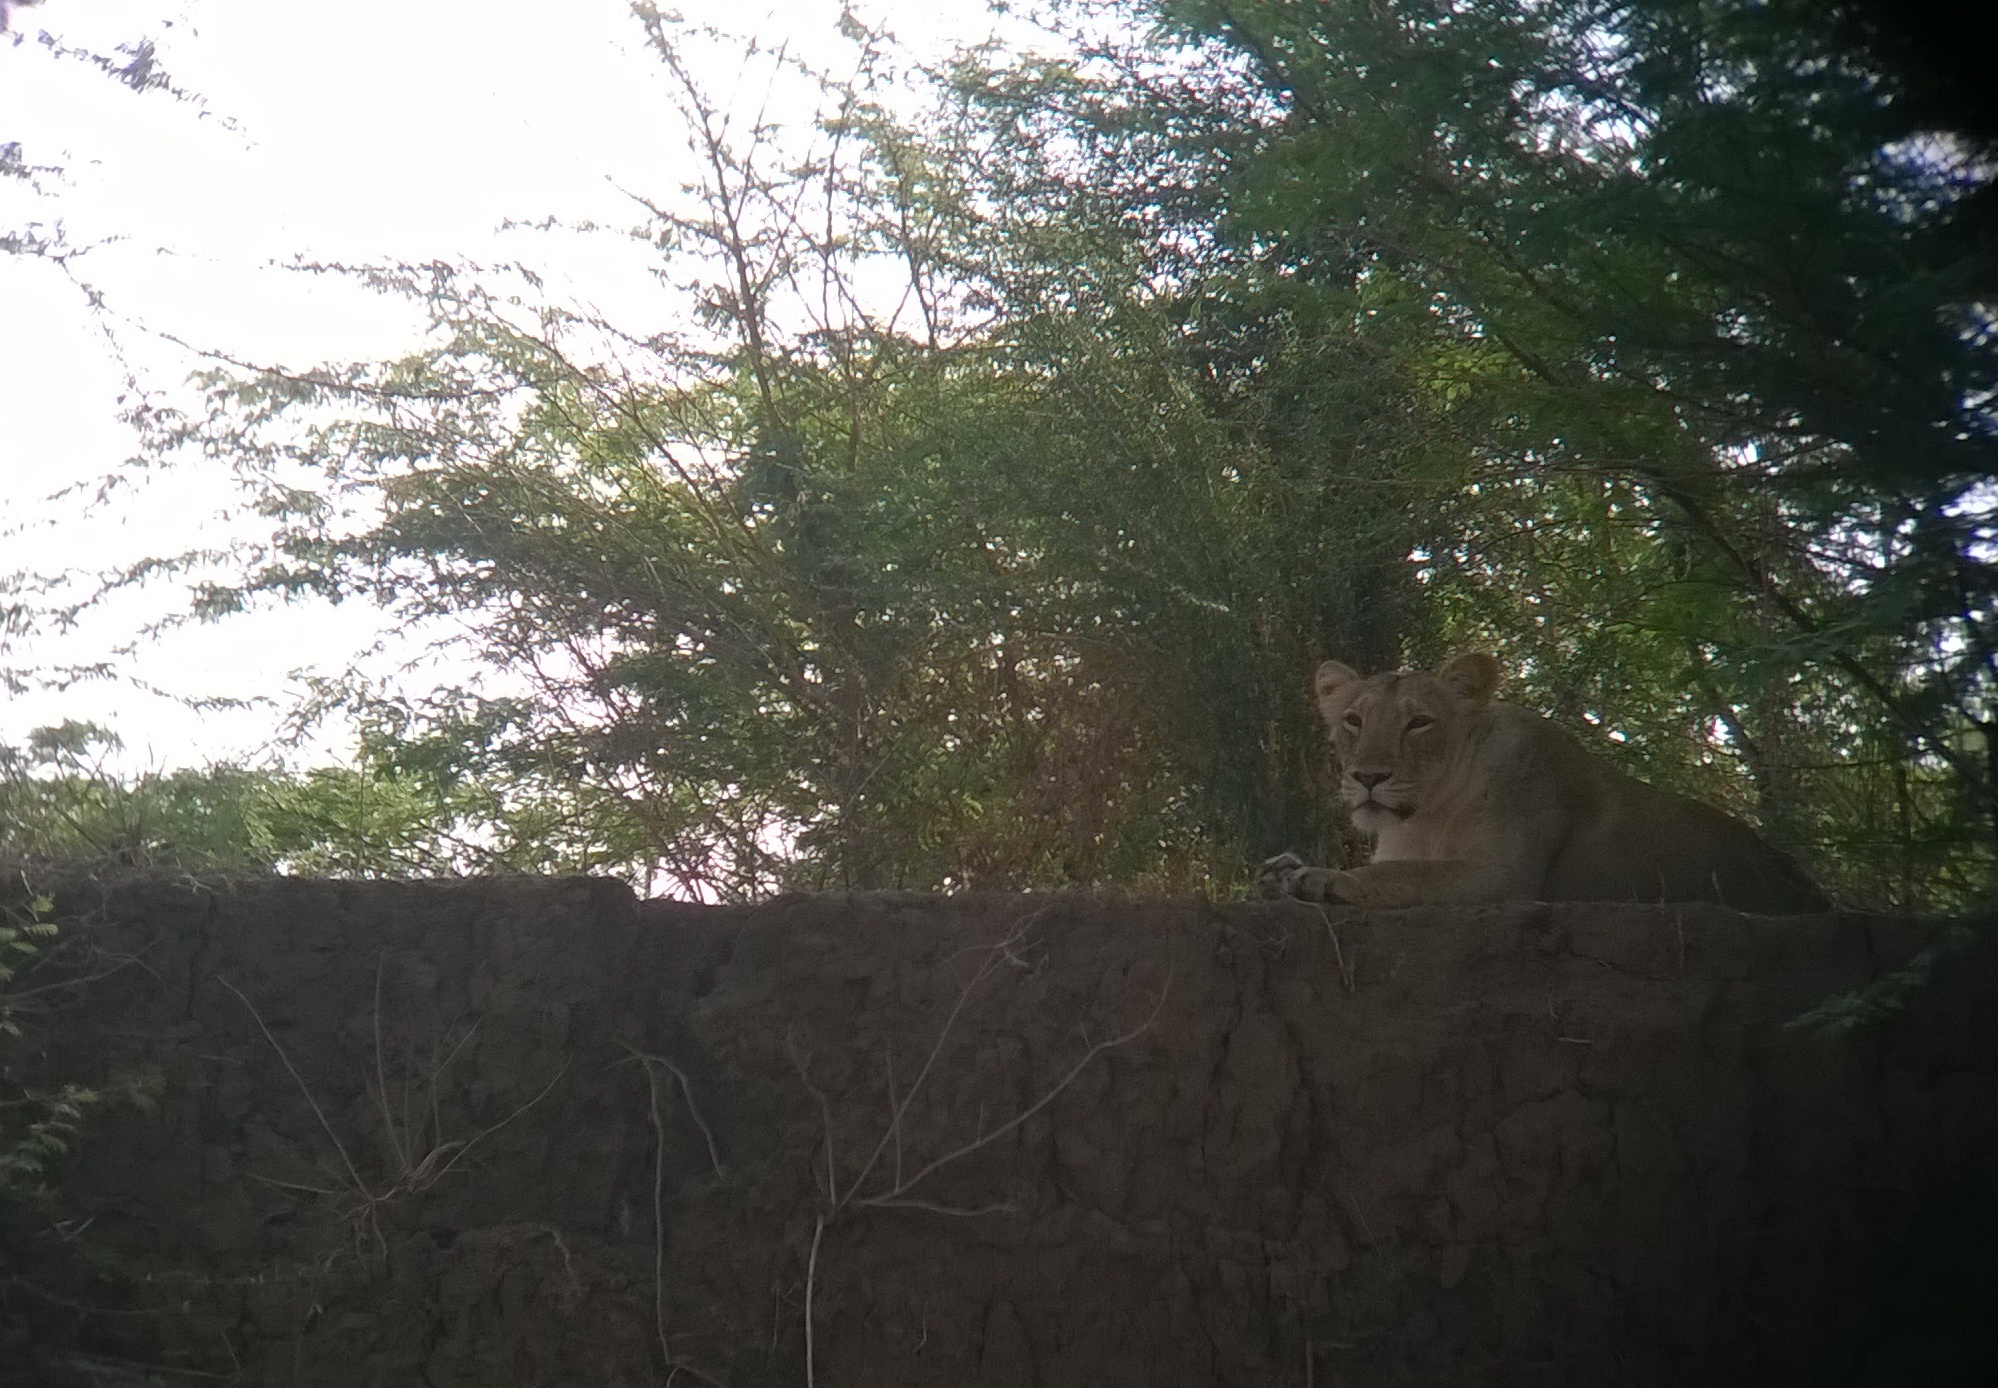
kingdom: Animalia
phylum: Chordata
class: Mammalia
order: Carnivora
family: Felidae
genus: Panthera
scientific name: Panthera leo
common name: Lion
